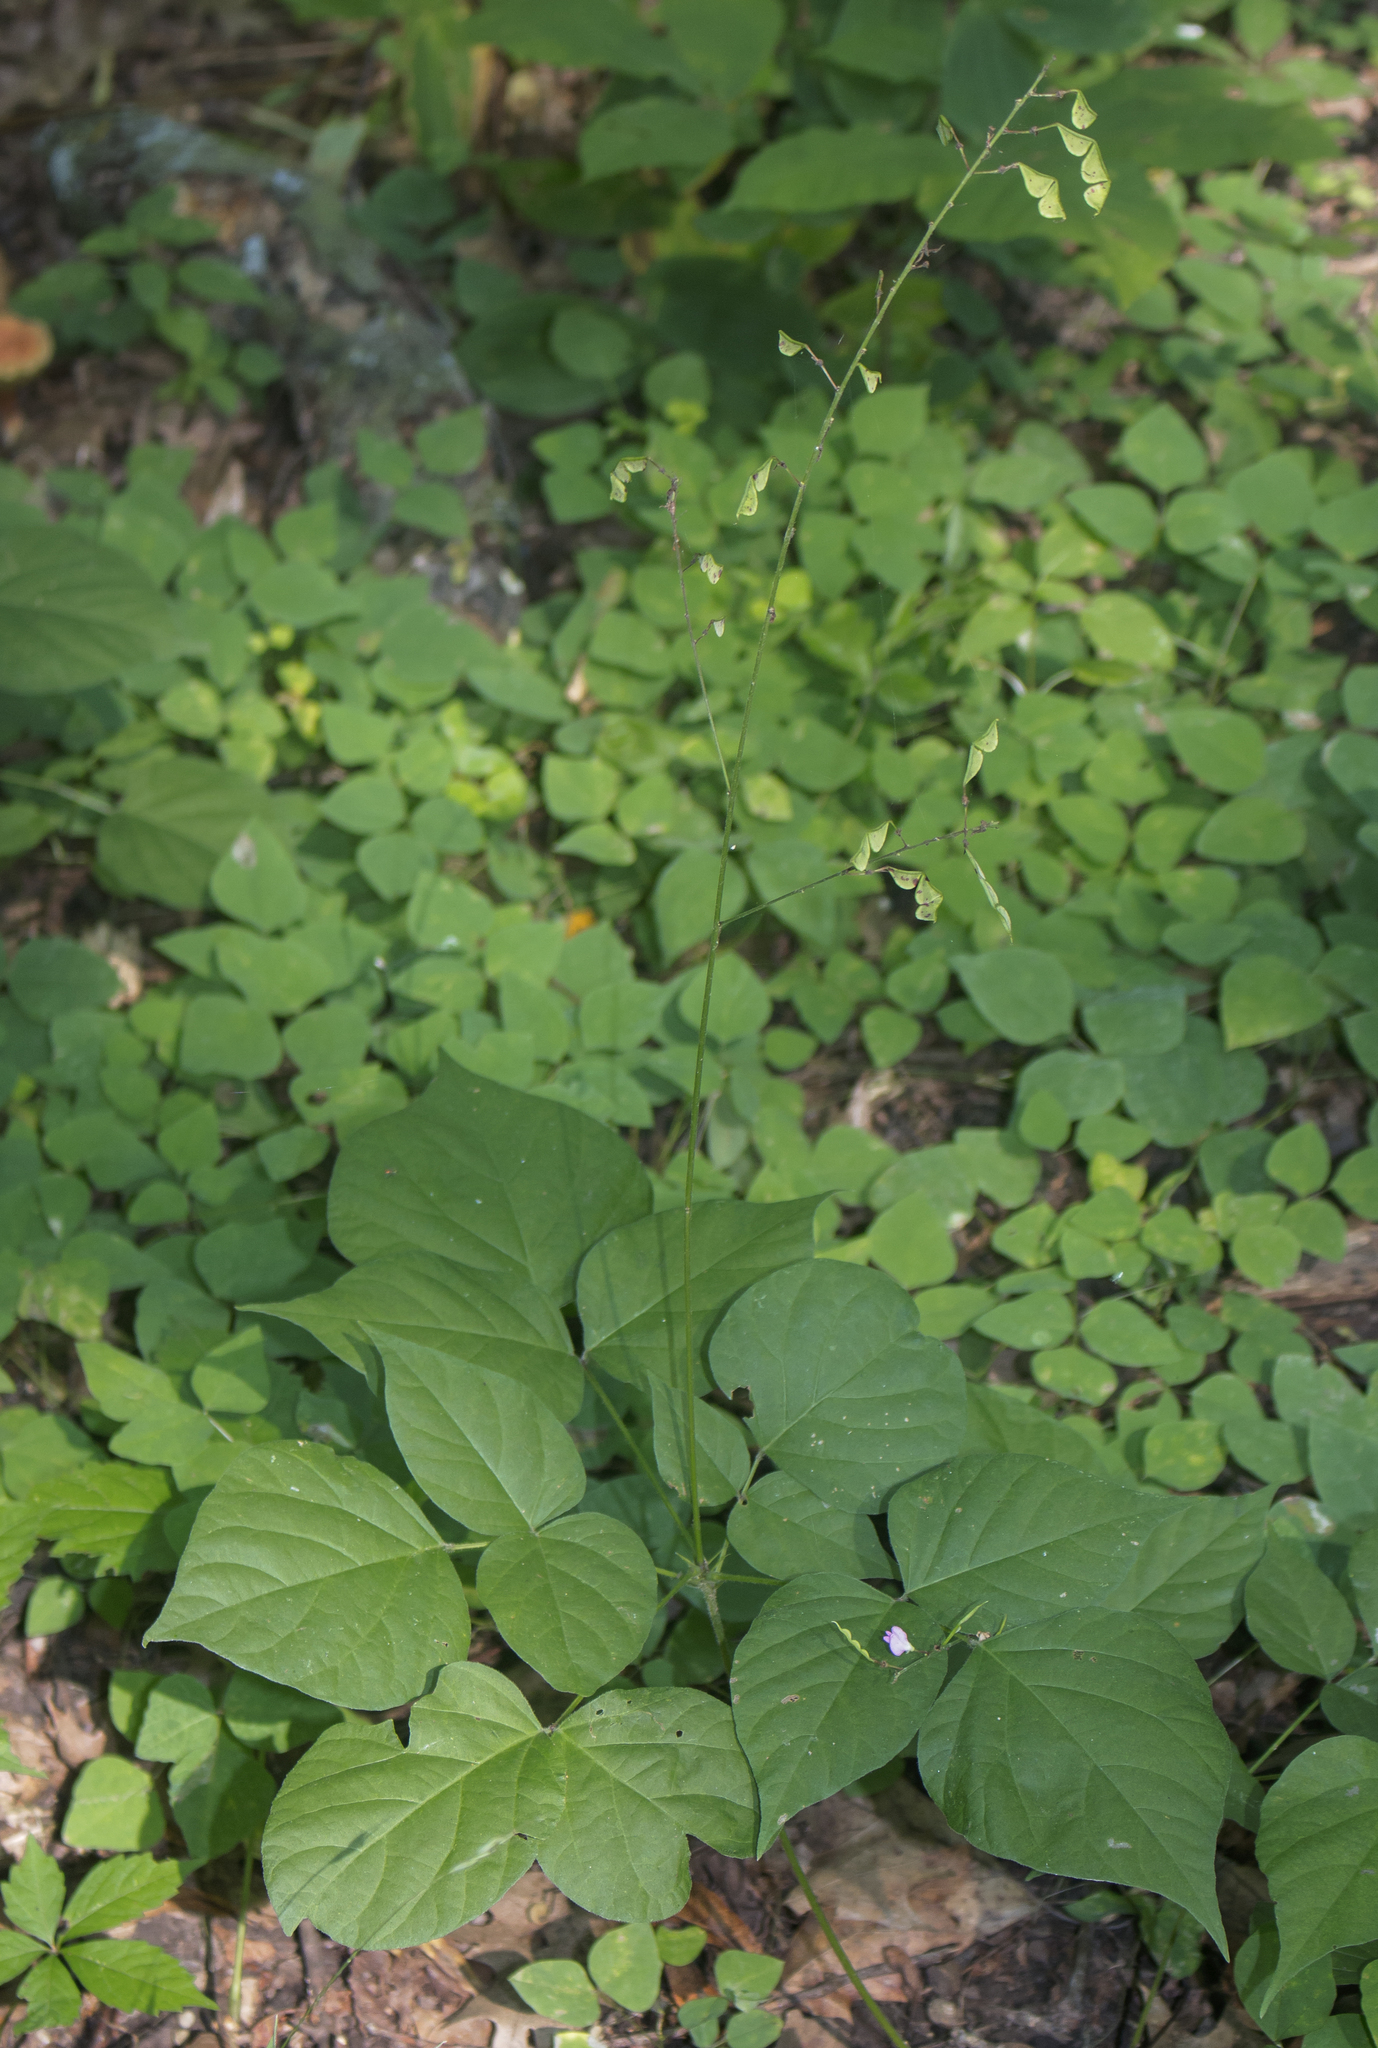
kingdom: Plantae
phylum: Tracheophyta
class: Magnoliopsida
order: Fabales
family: Fabaceae
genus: Hylodesmum
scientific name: Hylodesmum glutinosum
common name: Clustered-leaved tick-trefoil
